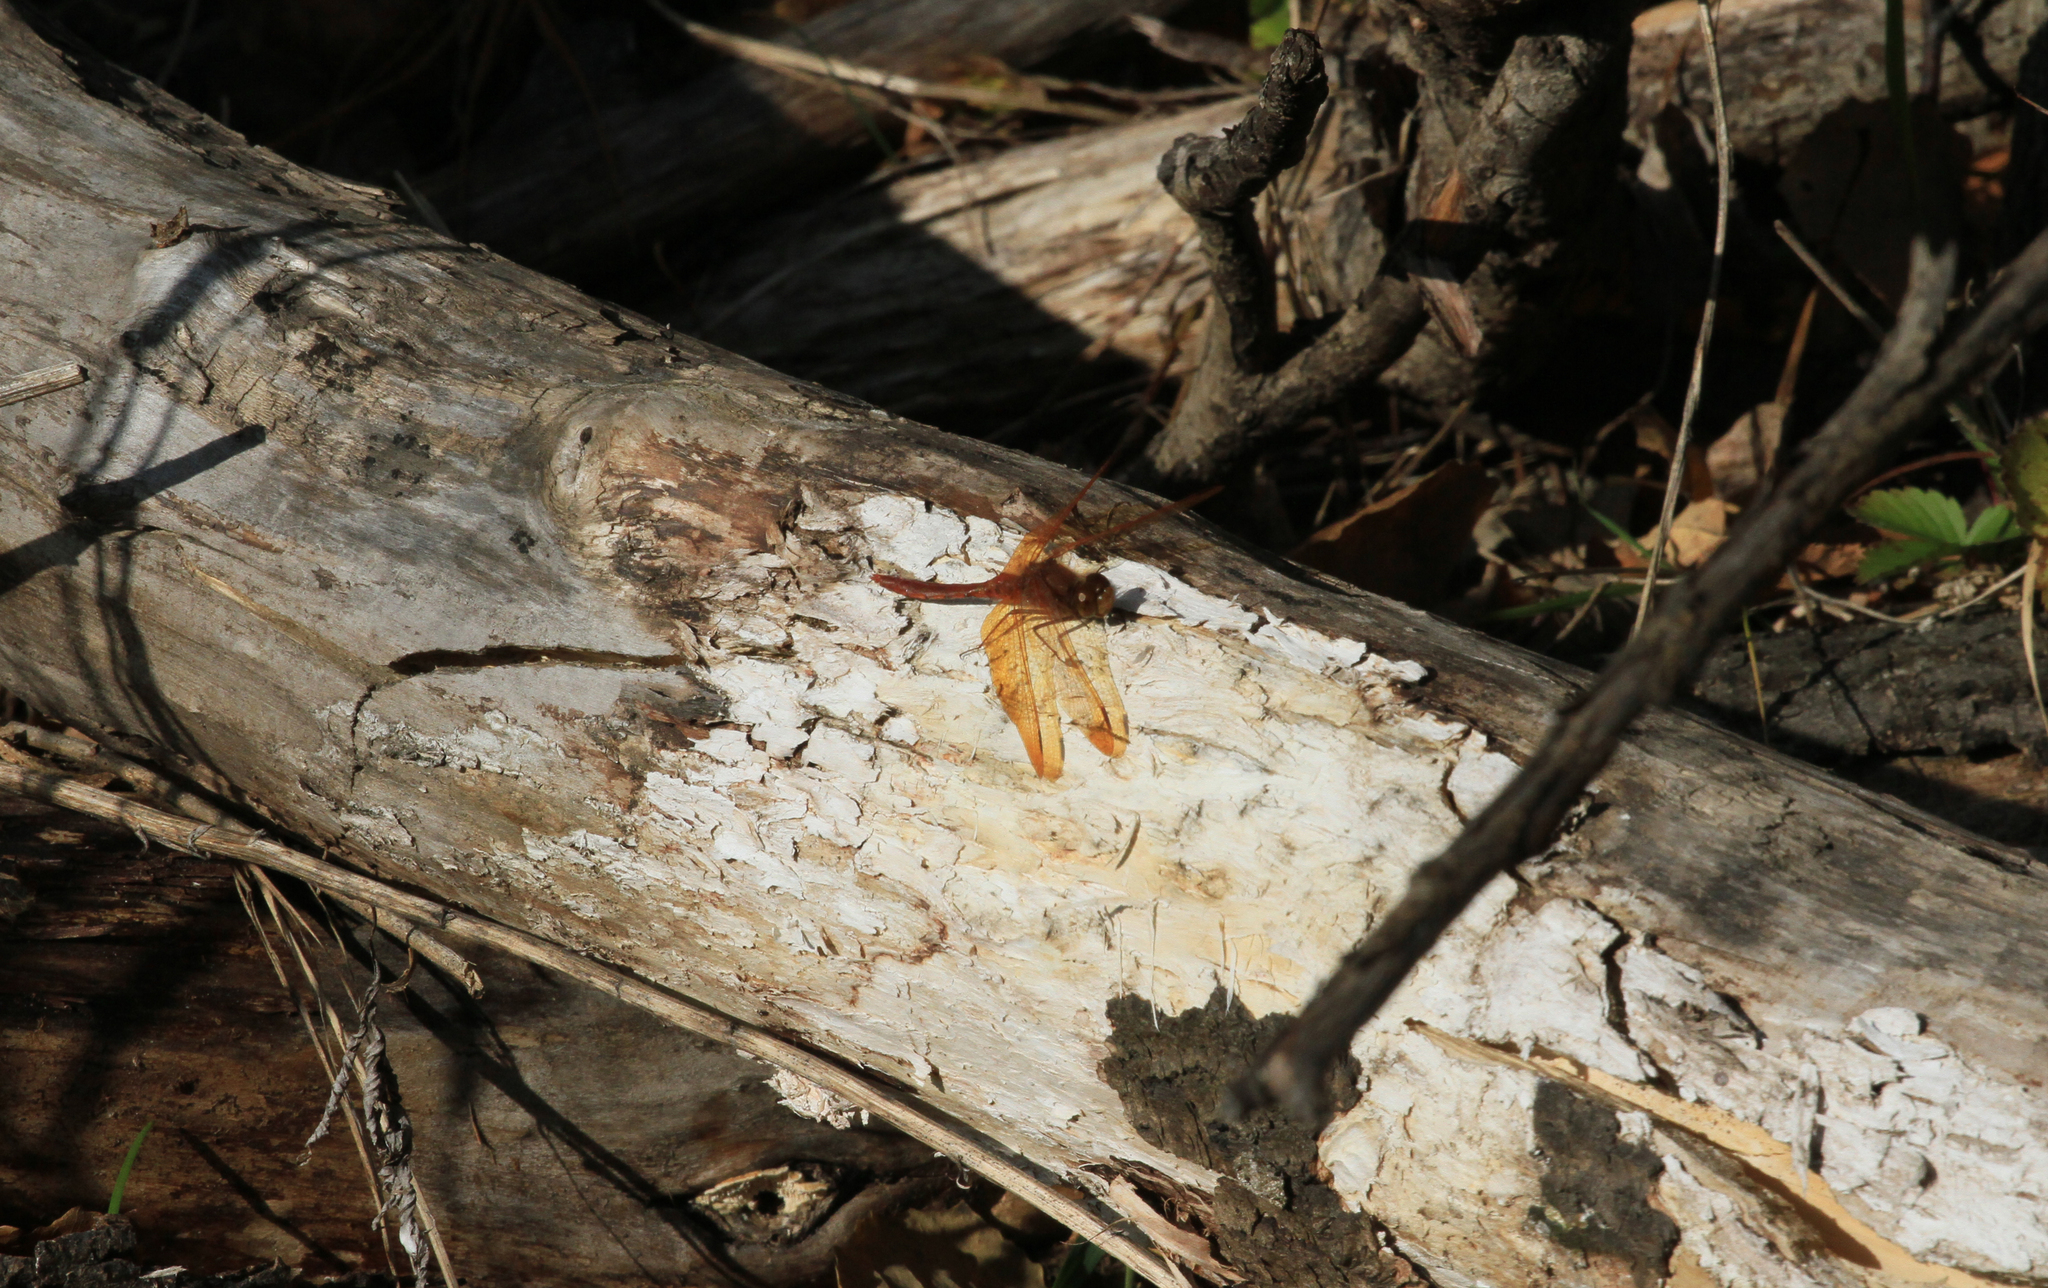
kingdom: Animalia
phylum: Arthropoda
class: Insecta
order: Odonata
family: Libellulidae
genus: Sympetrum
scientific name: Sympetrum croceolum
